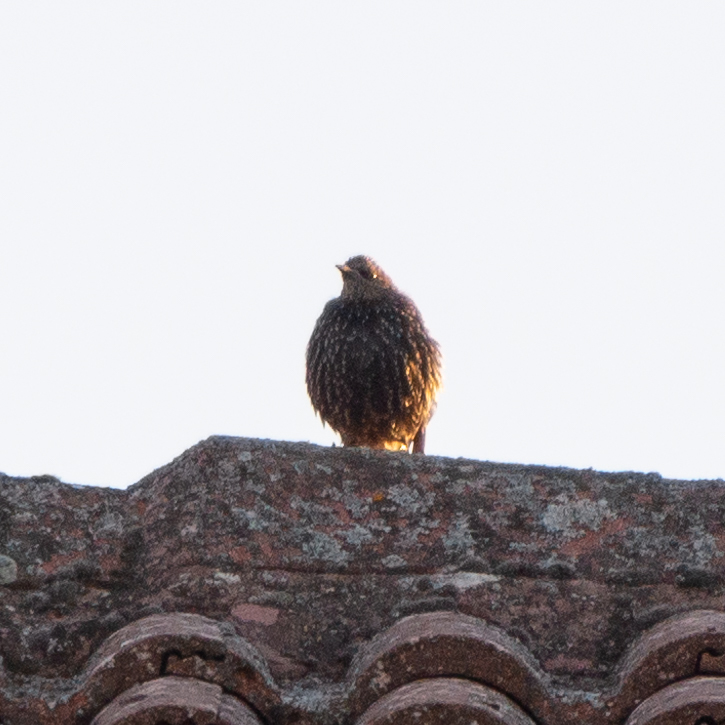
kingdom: Animalia
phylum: Chordata
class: Aves
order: Passeriformes
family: Sturnidae
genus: Sturnus
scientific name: Sturnus vulgaris
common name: Common starling
